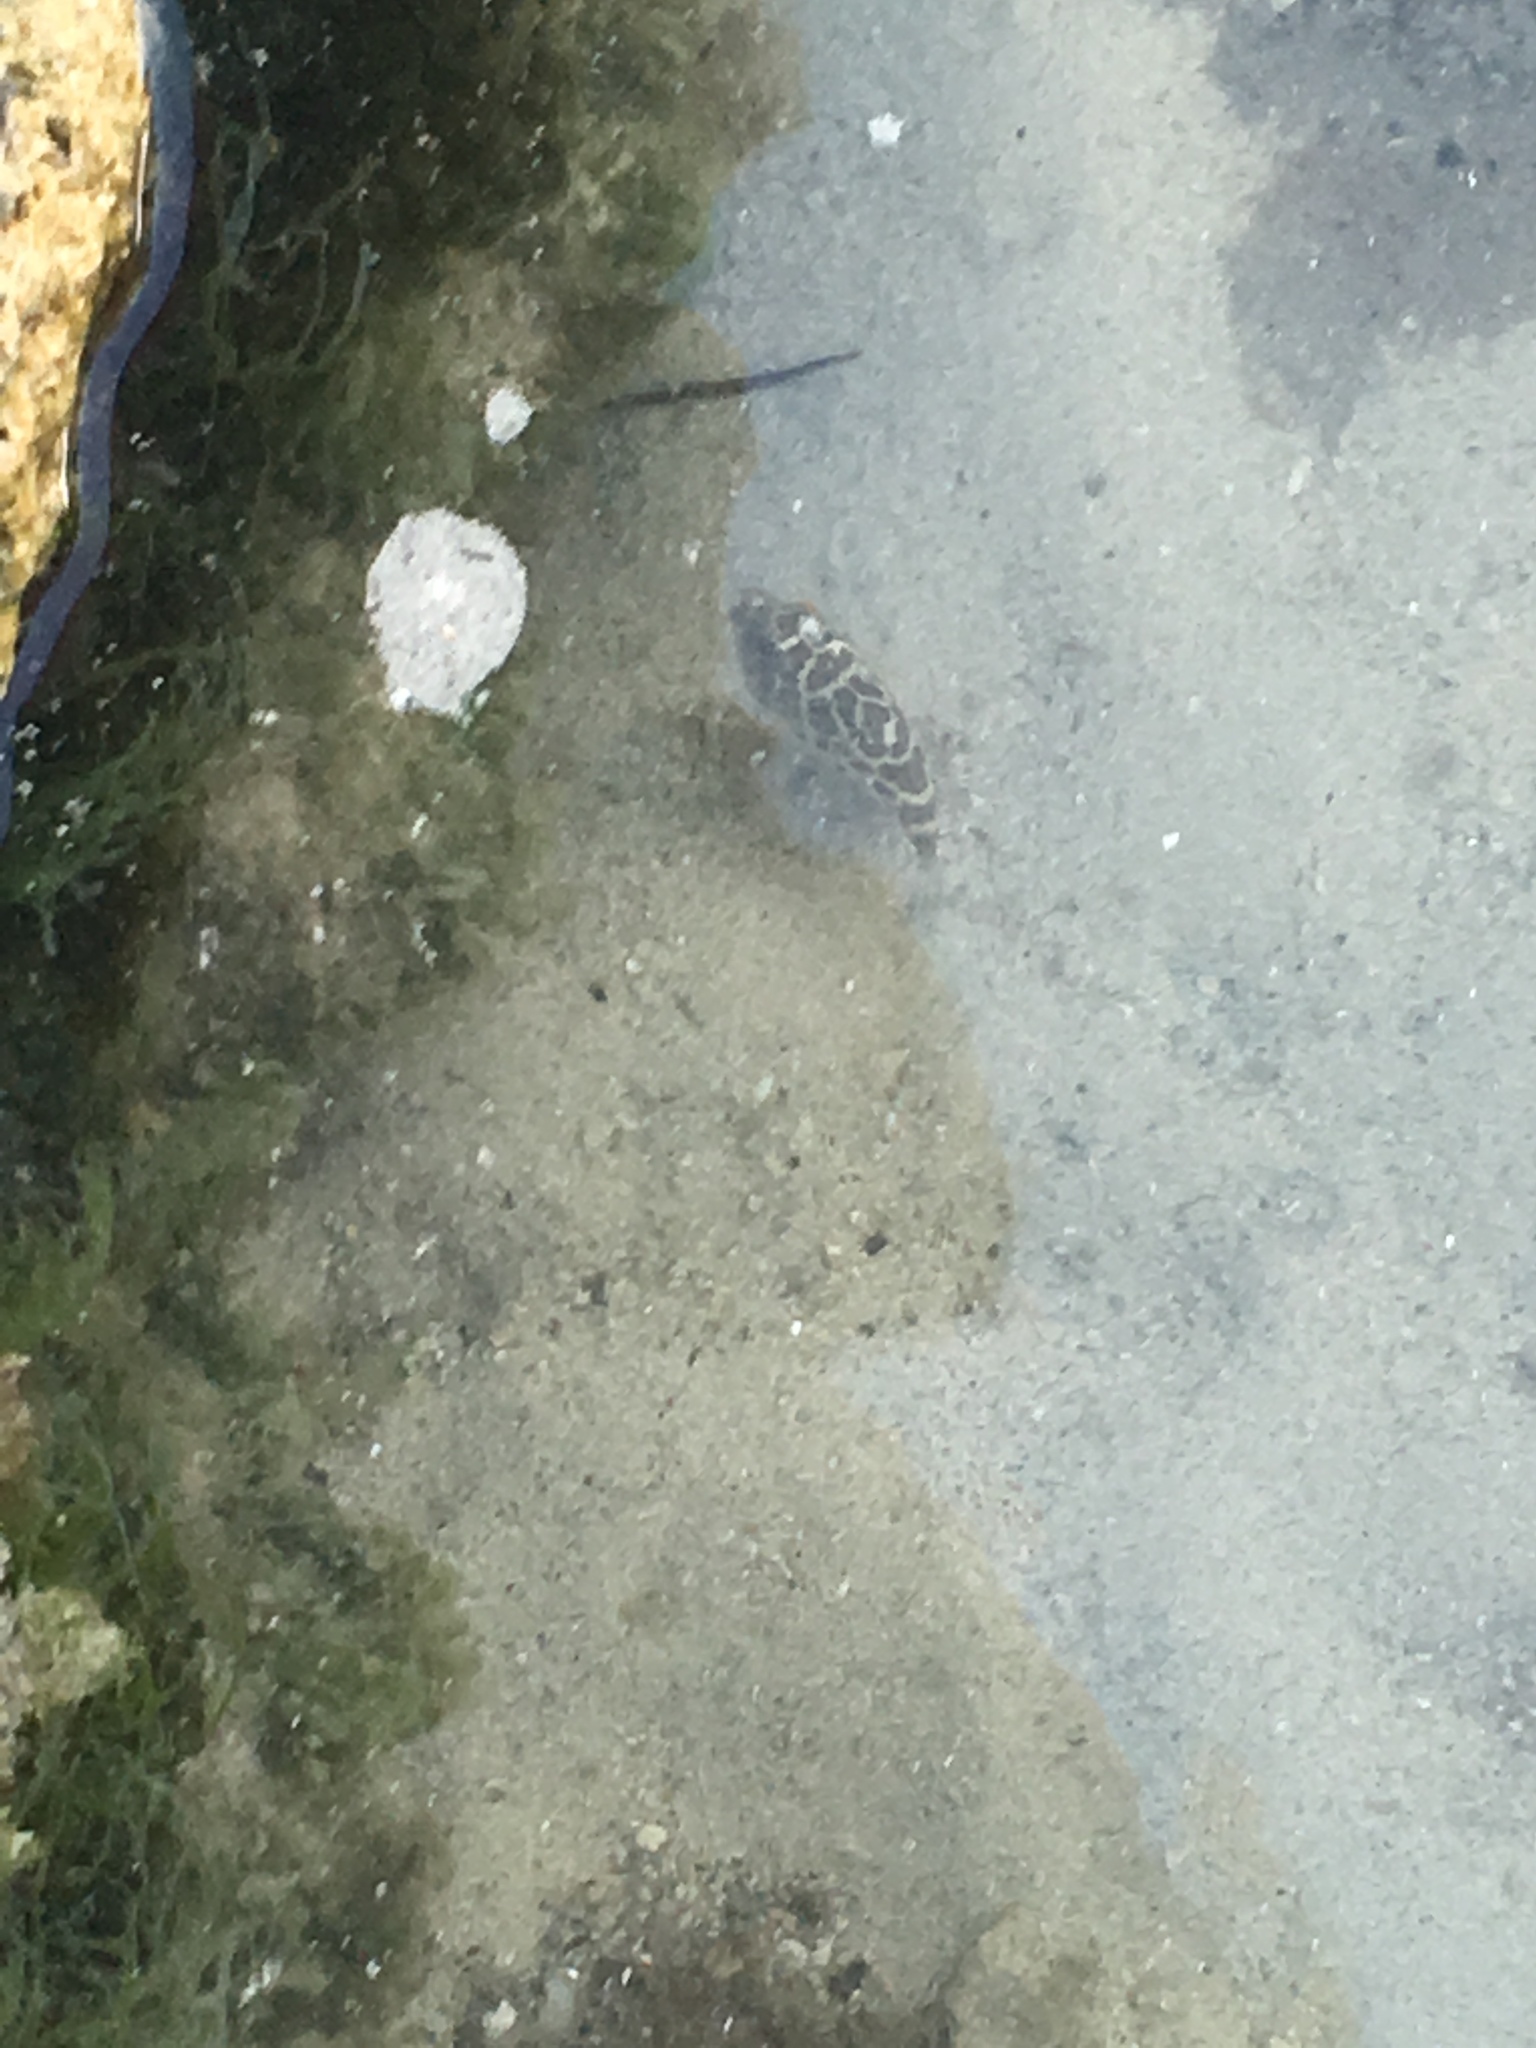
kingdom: Animalia
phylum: Chordata
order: Tetraodontiformes
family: Tetraodontidae
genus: Sphoeroides
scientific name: Sphoeroides testudineus
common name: Checkered puffer
